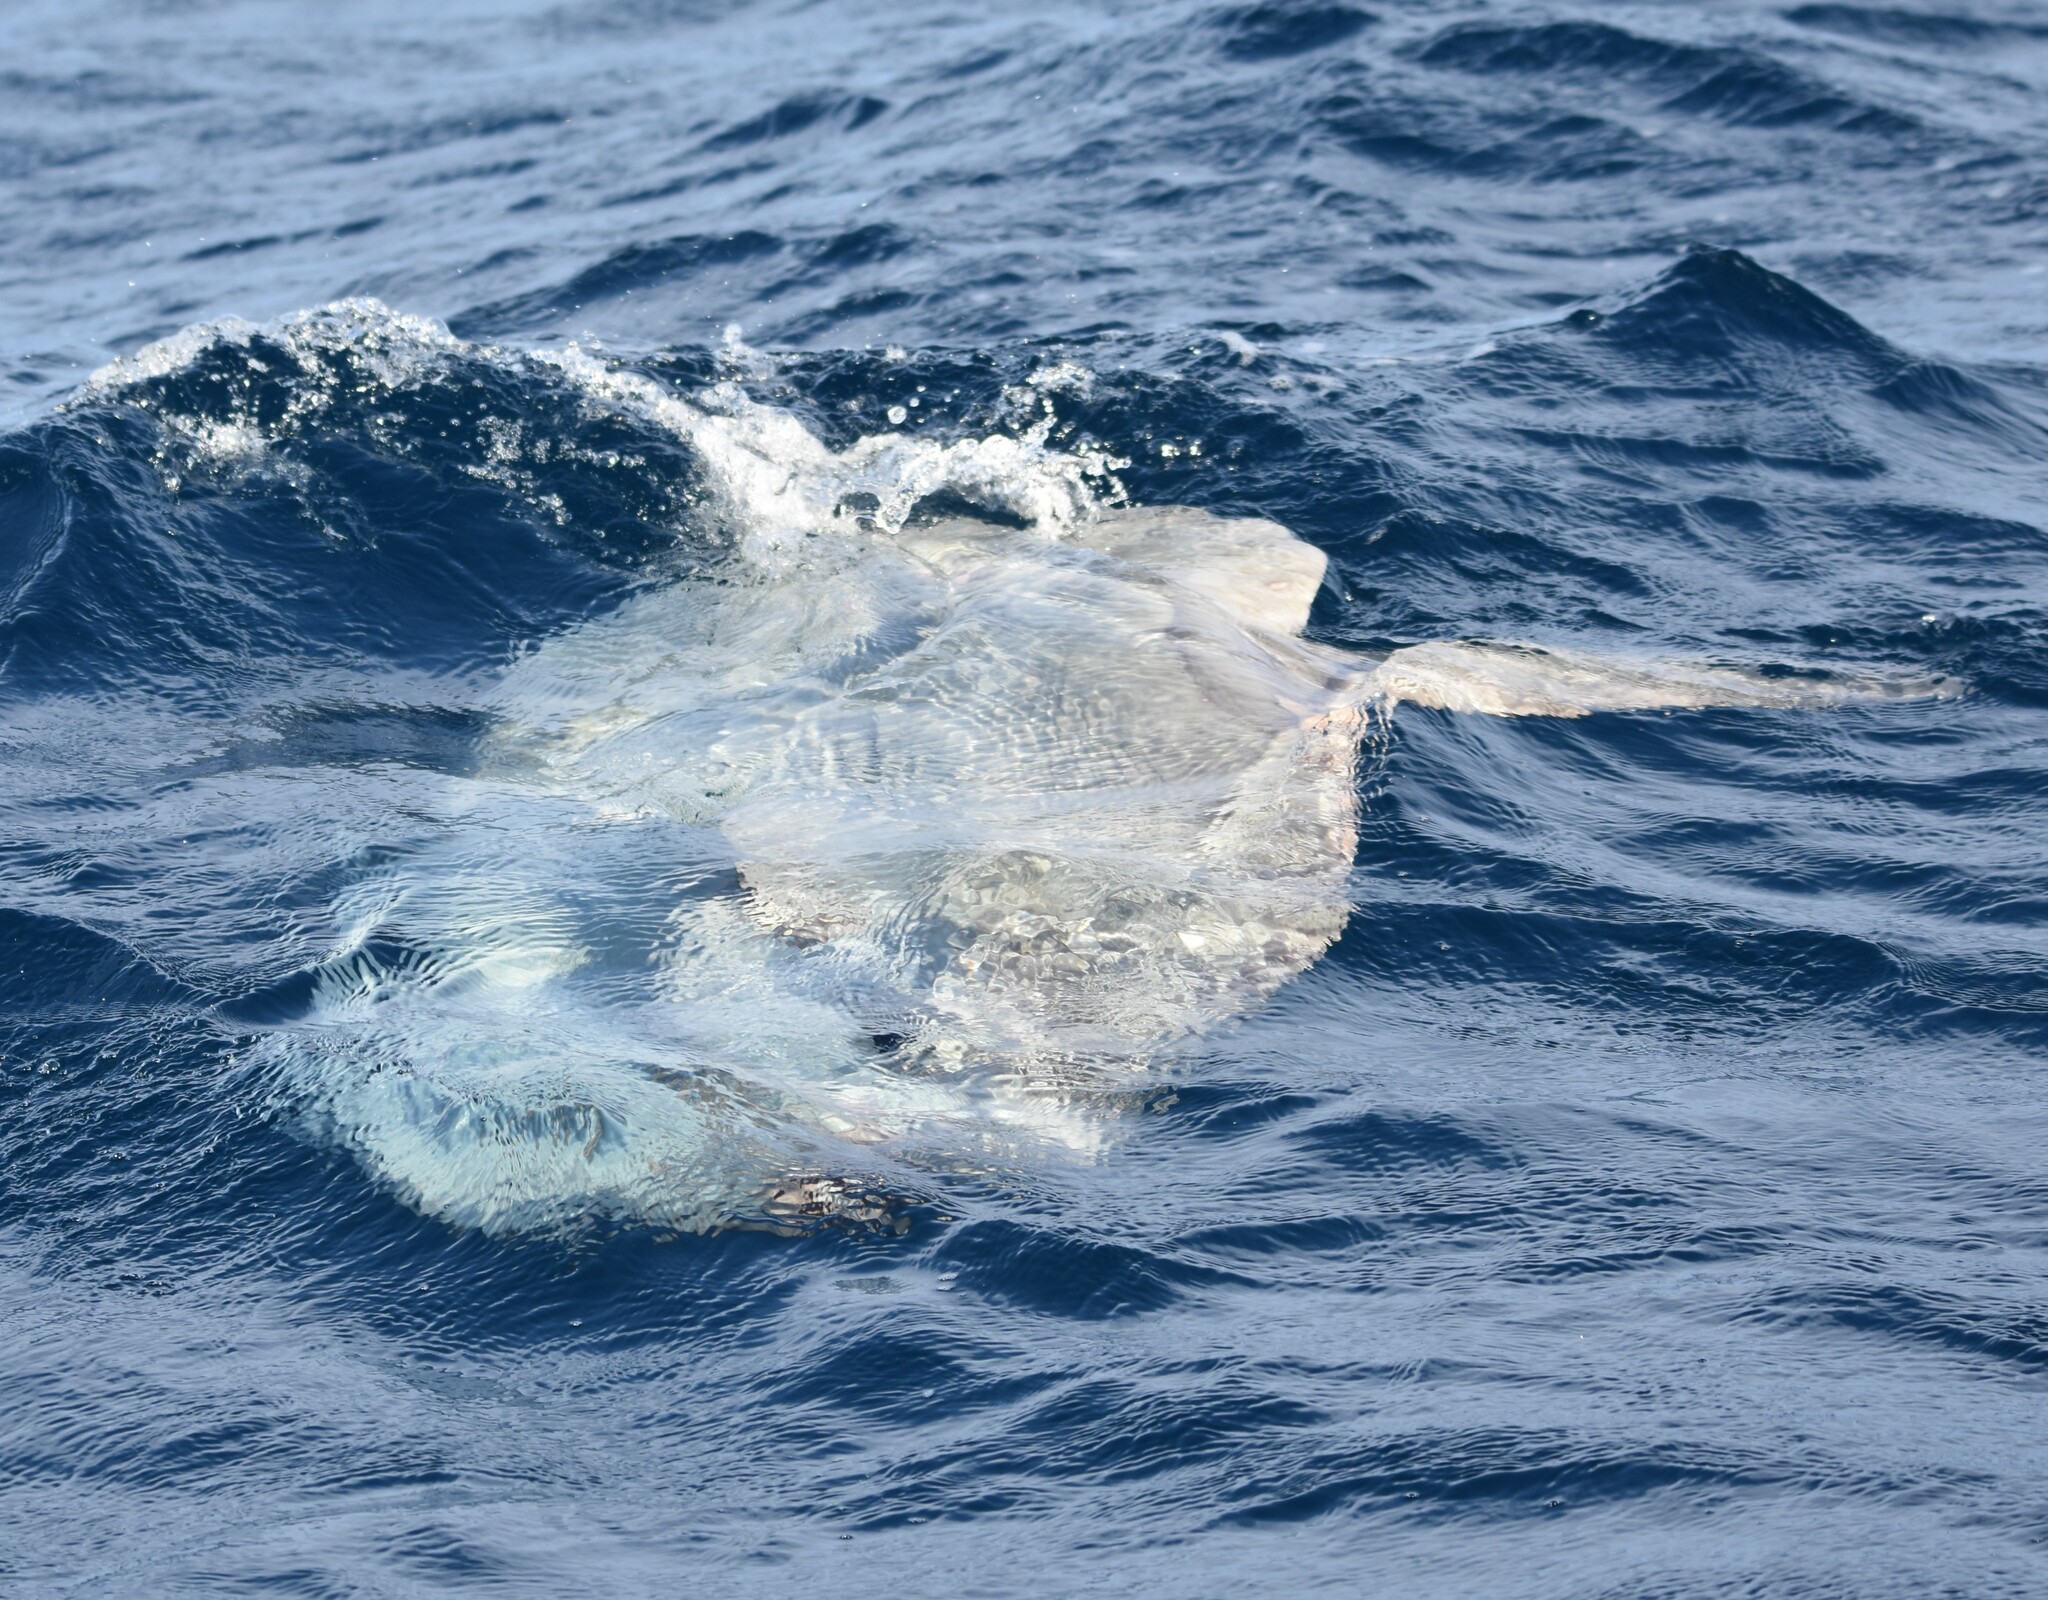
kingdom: Animalia
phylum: Chordata
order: Tetraodontiformes
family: Molidae
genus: Mola
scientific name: Mola mola
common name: Ocean sunfish
